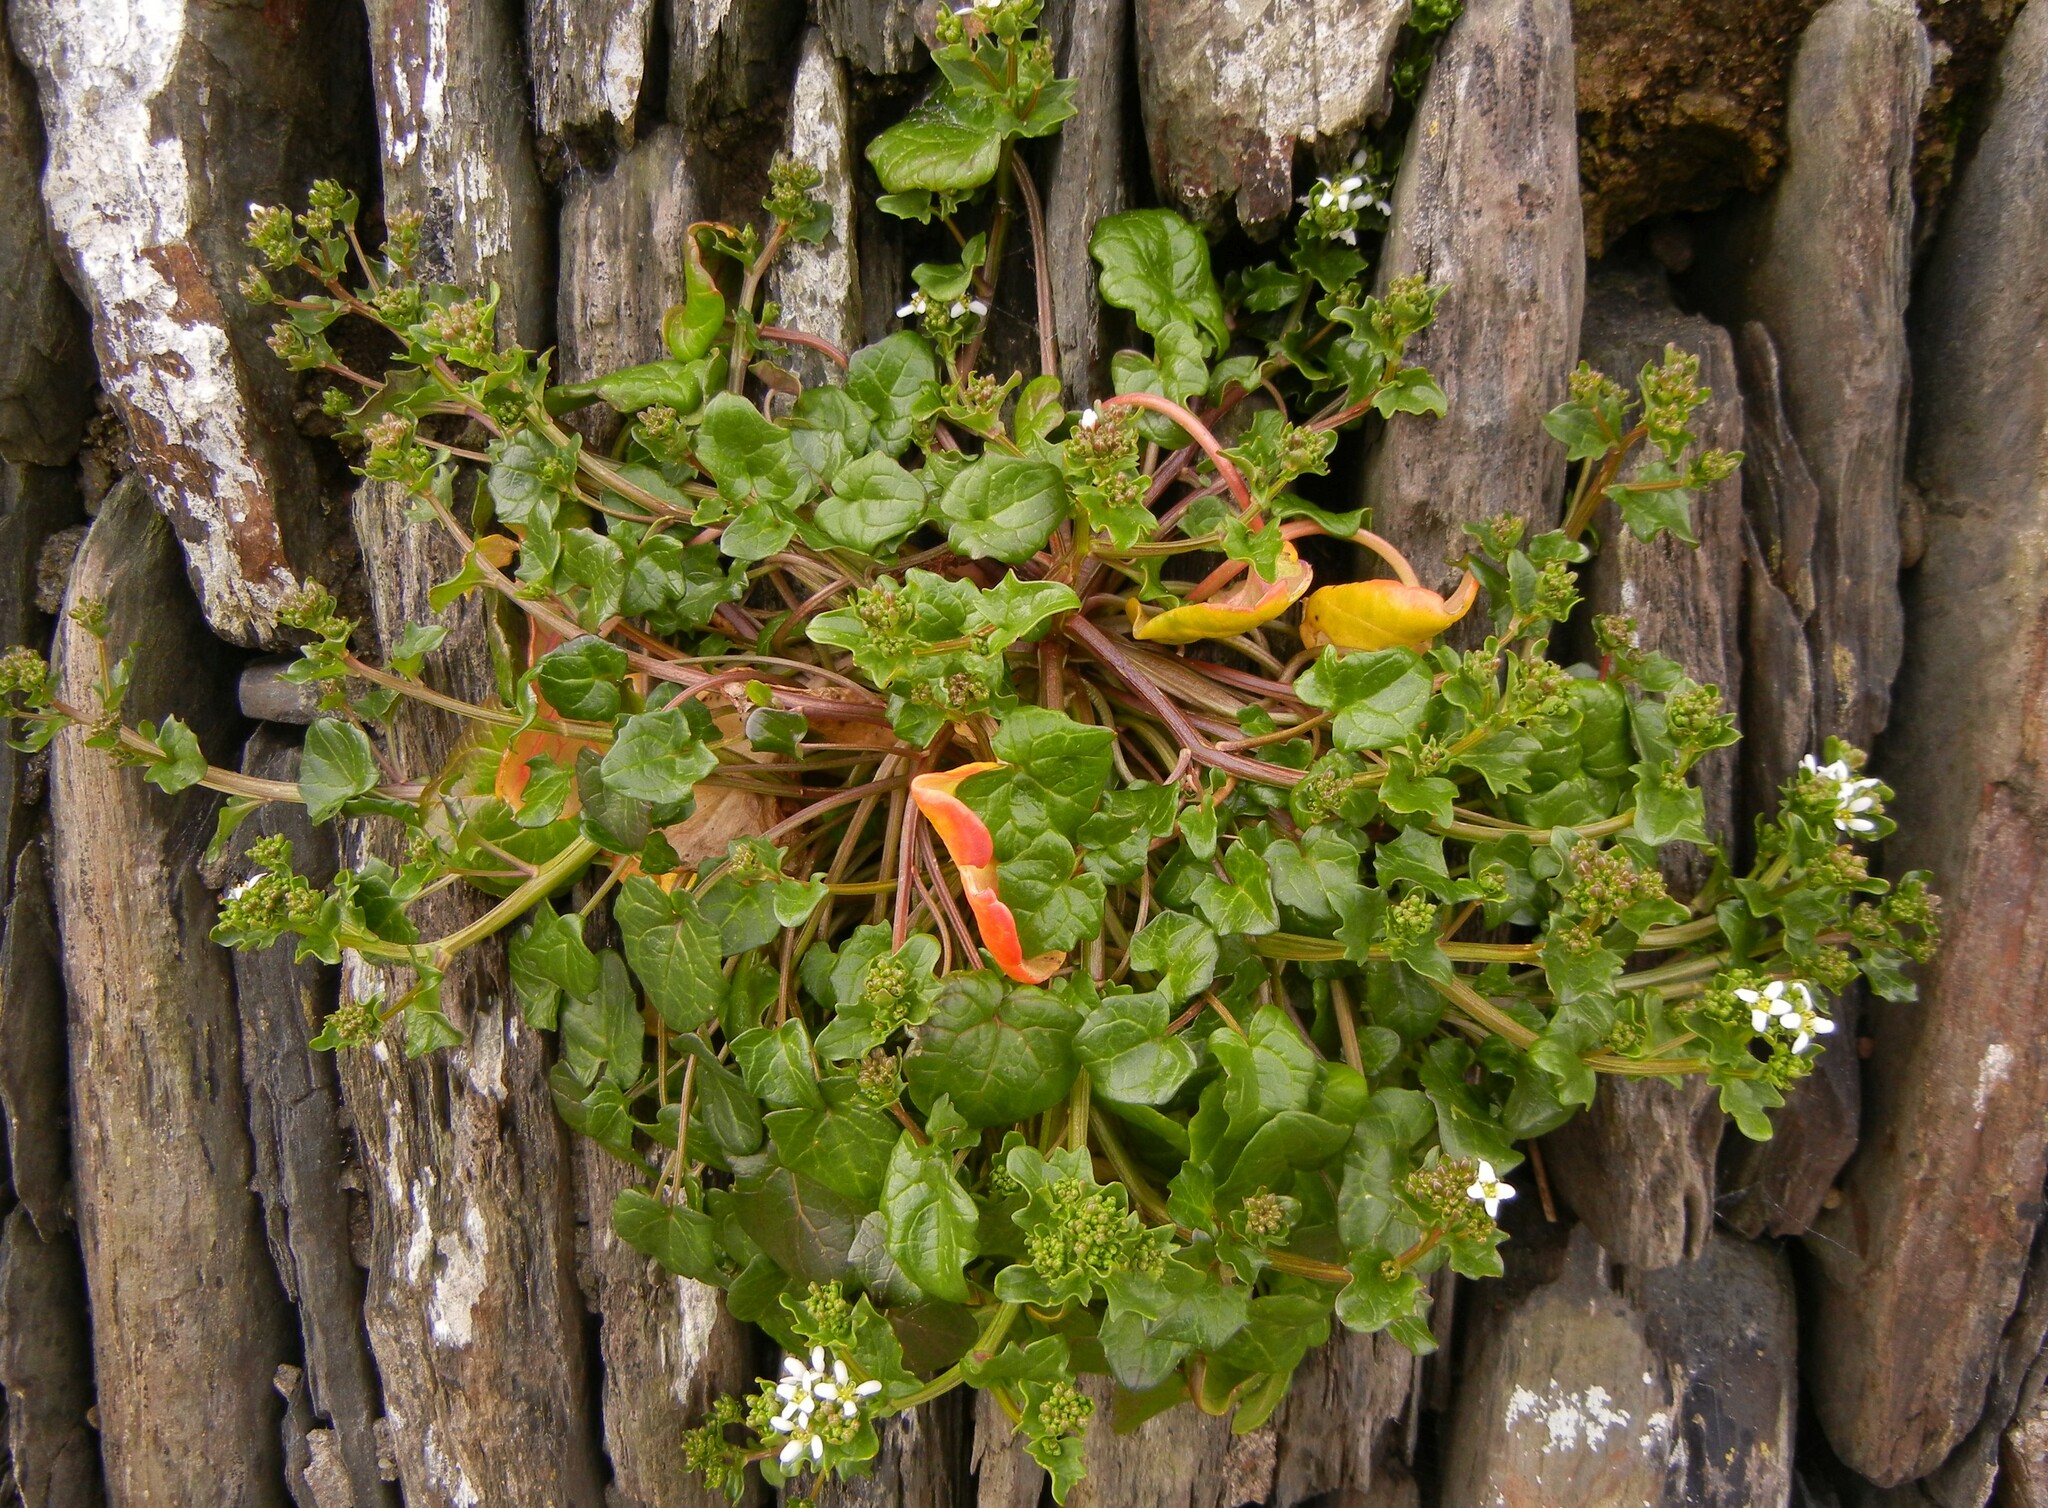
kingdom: Plantae
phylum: Tracheophyta
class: Magnoliopsida
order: Brassicales
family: Brassicaceae
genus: Cochlearia
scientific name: Cochlearia officinalis
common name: Scurvy-grass
